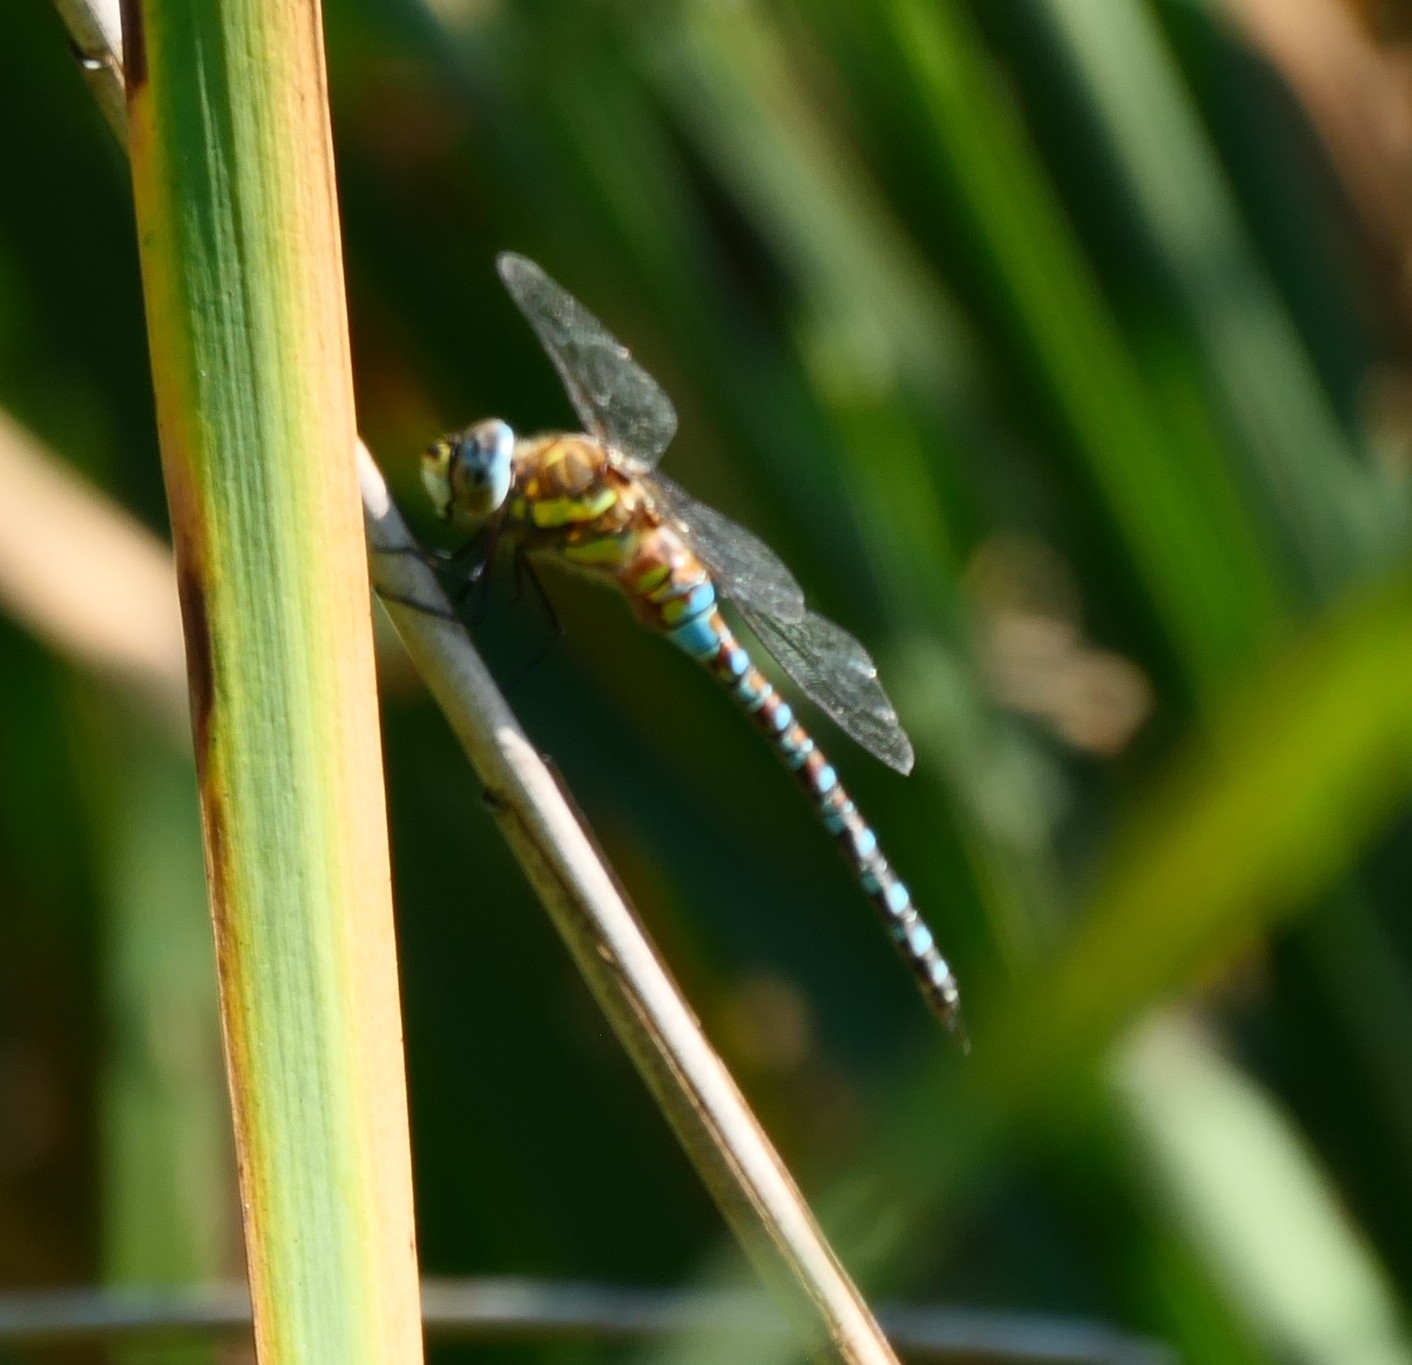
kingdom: Animalia
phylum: Arthropoda
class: Insecta
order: Odonata
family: Aeshnidae
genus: Aeshna
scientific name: Aeshna mixta
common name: Migrant hawker
